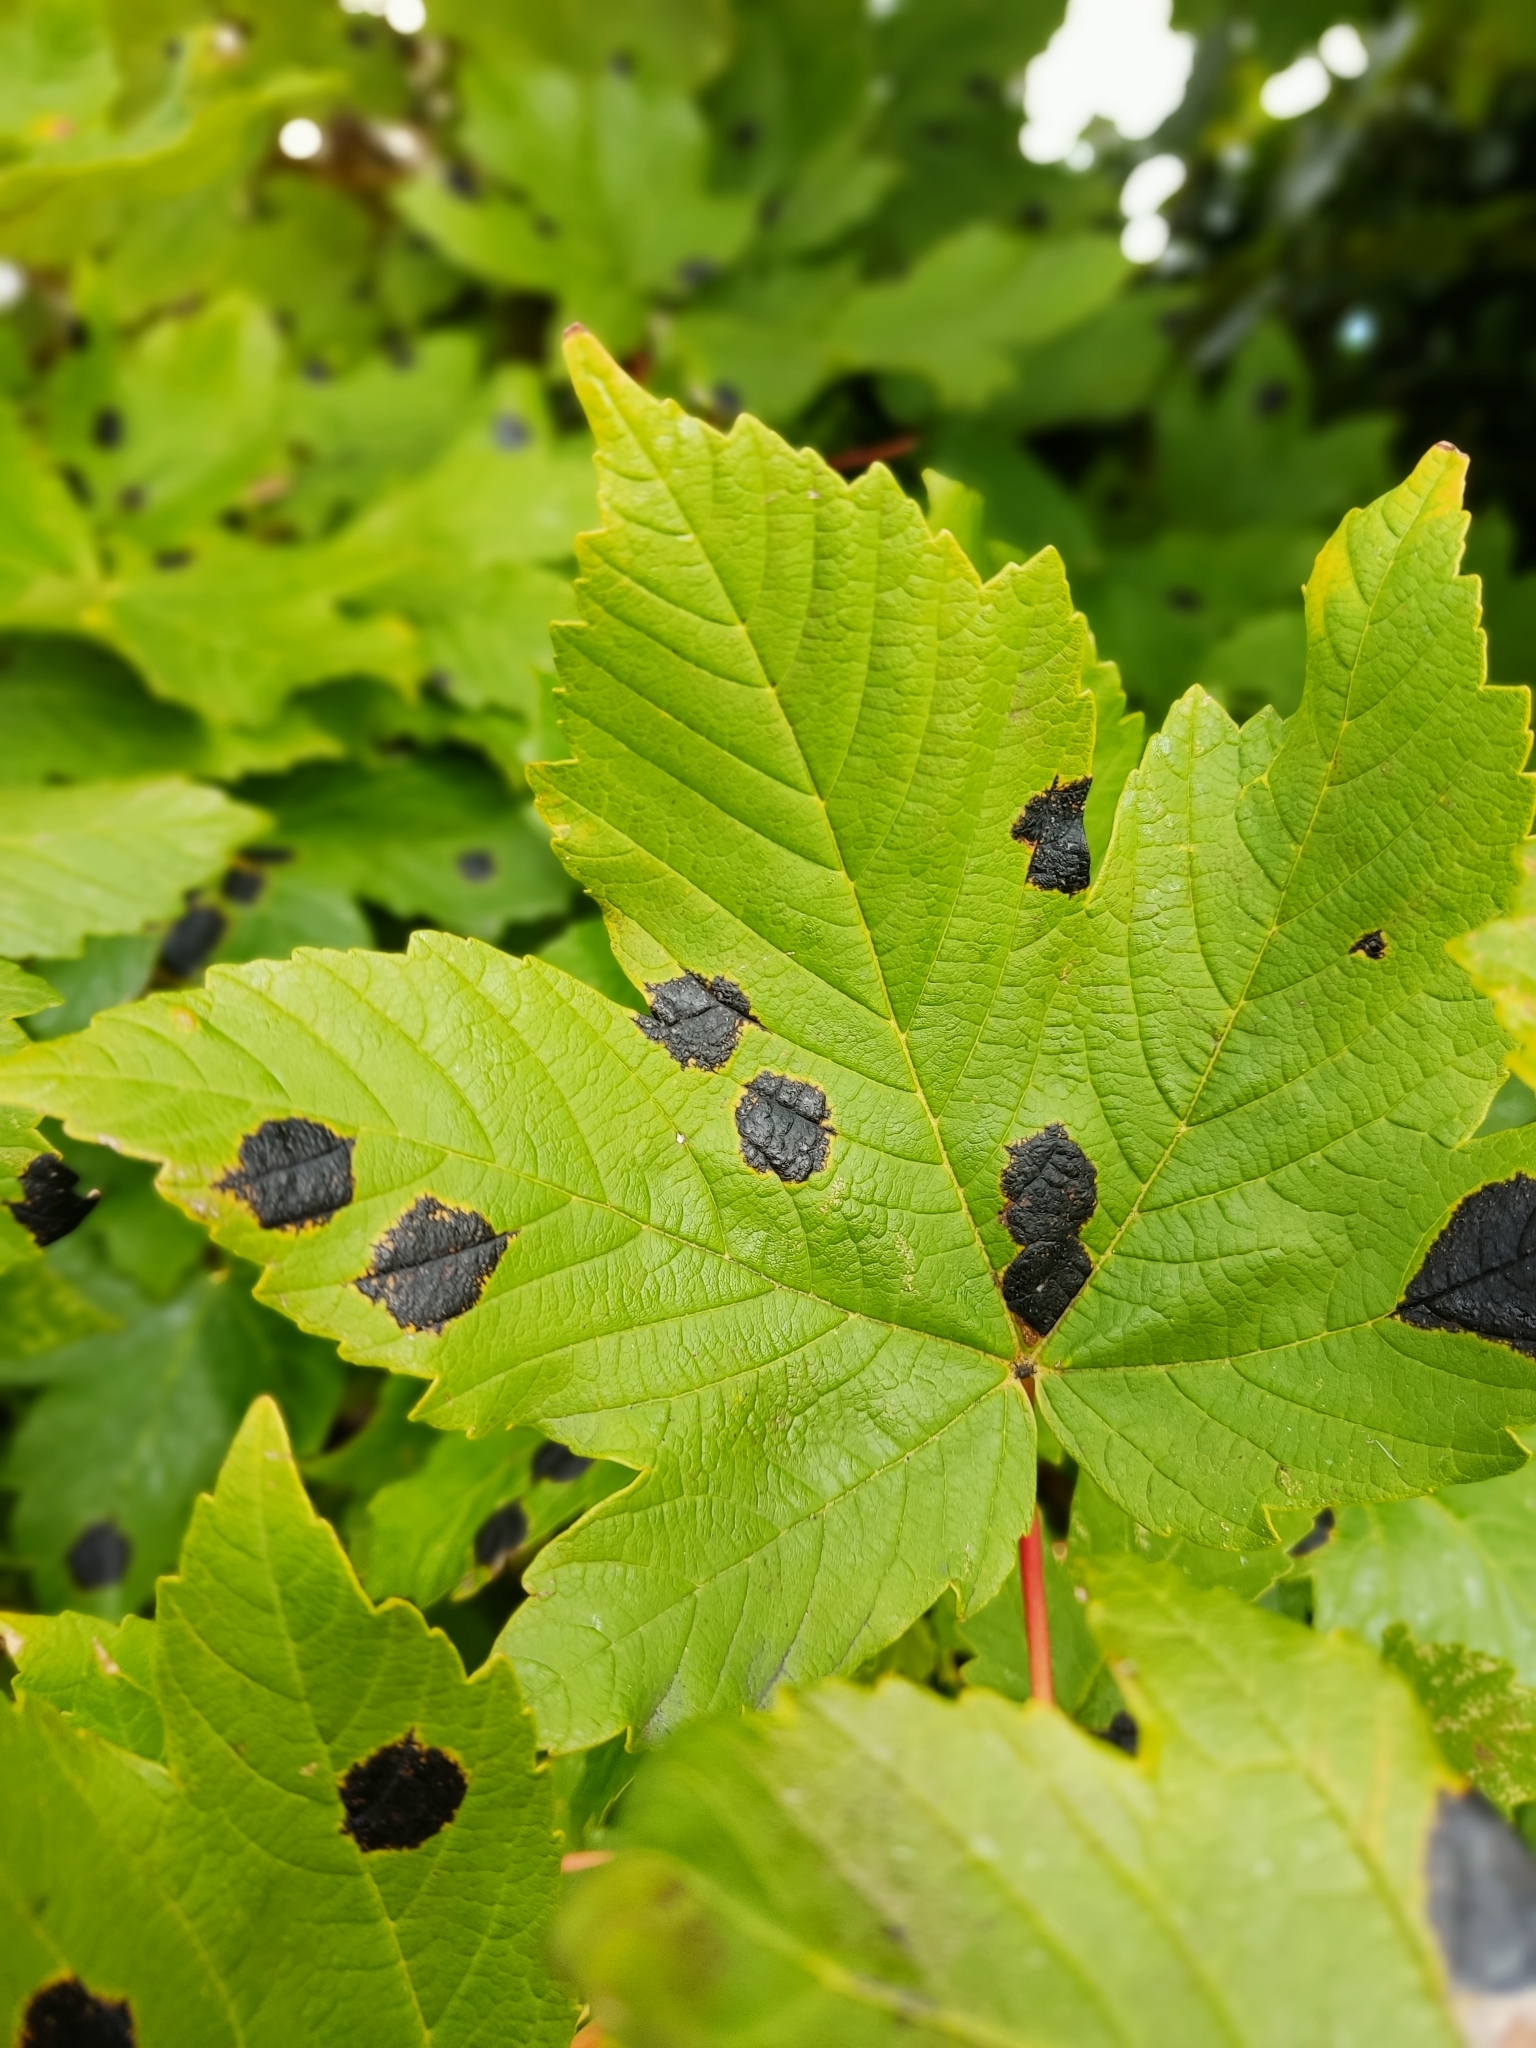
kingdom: Fungi
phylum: Ascomycota
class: Leotiomycetes
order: Rhytismatales
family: Rhytismataceae
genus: Rhytisma
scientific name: Rhytisma acerinum
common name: European tar spot
